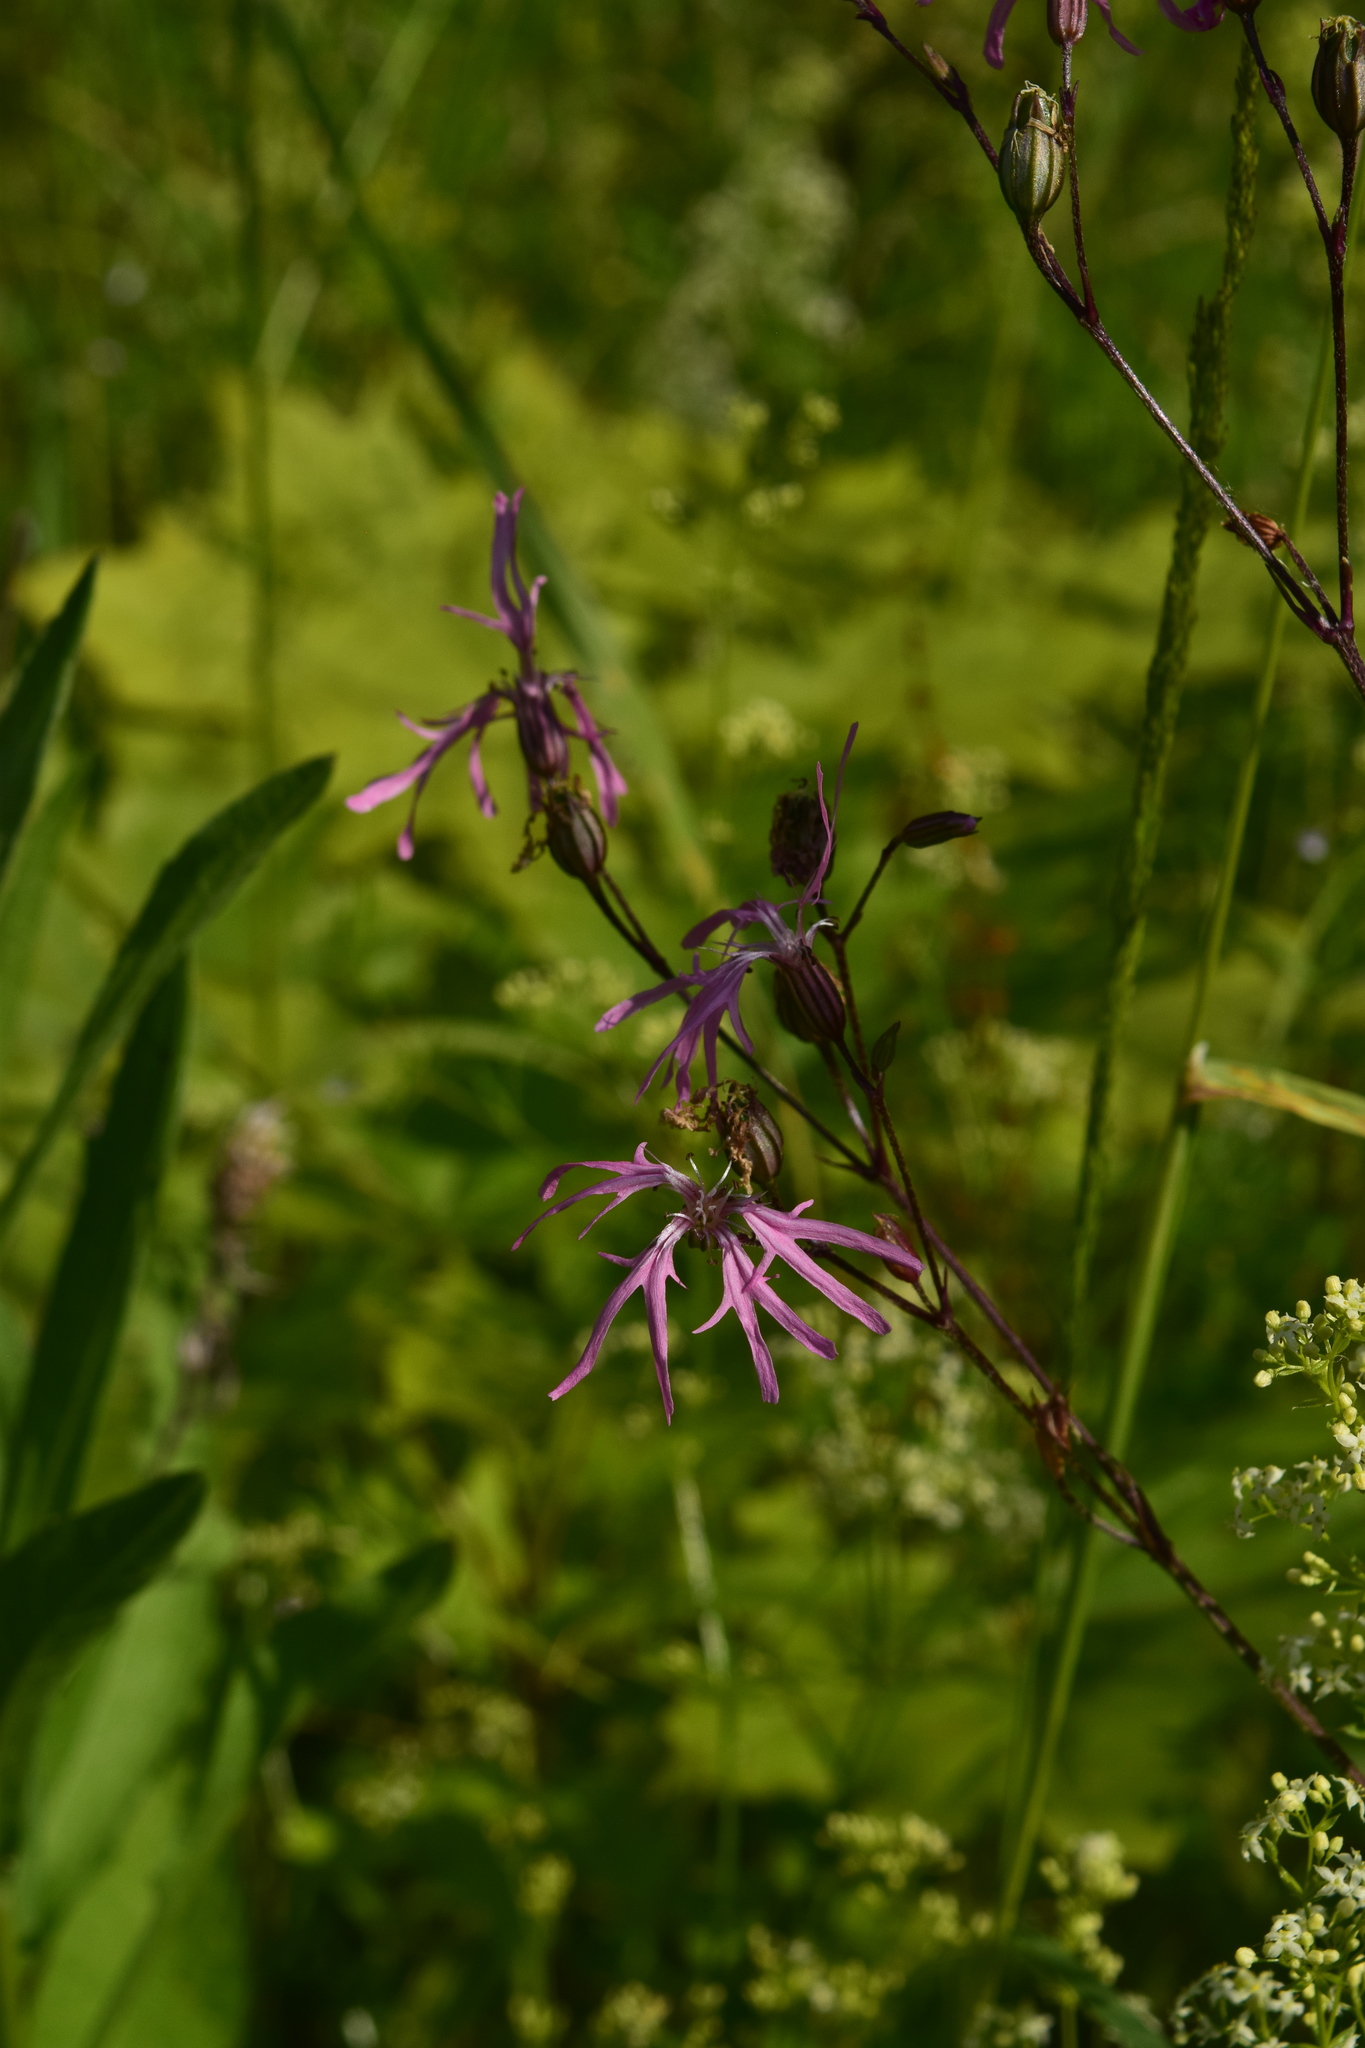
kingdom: Plantae
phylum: Tracheophyta
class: Magnoliopsida
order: Caryophyllales
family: Caryophyllaceae
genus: Silene
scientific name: Silene flos-cuculi
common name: Ragged-robin
